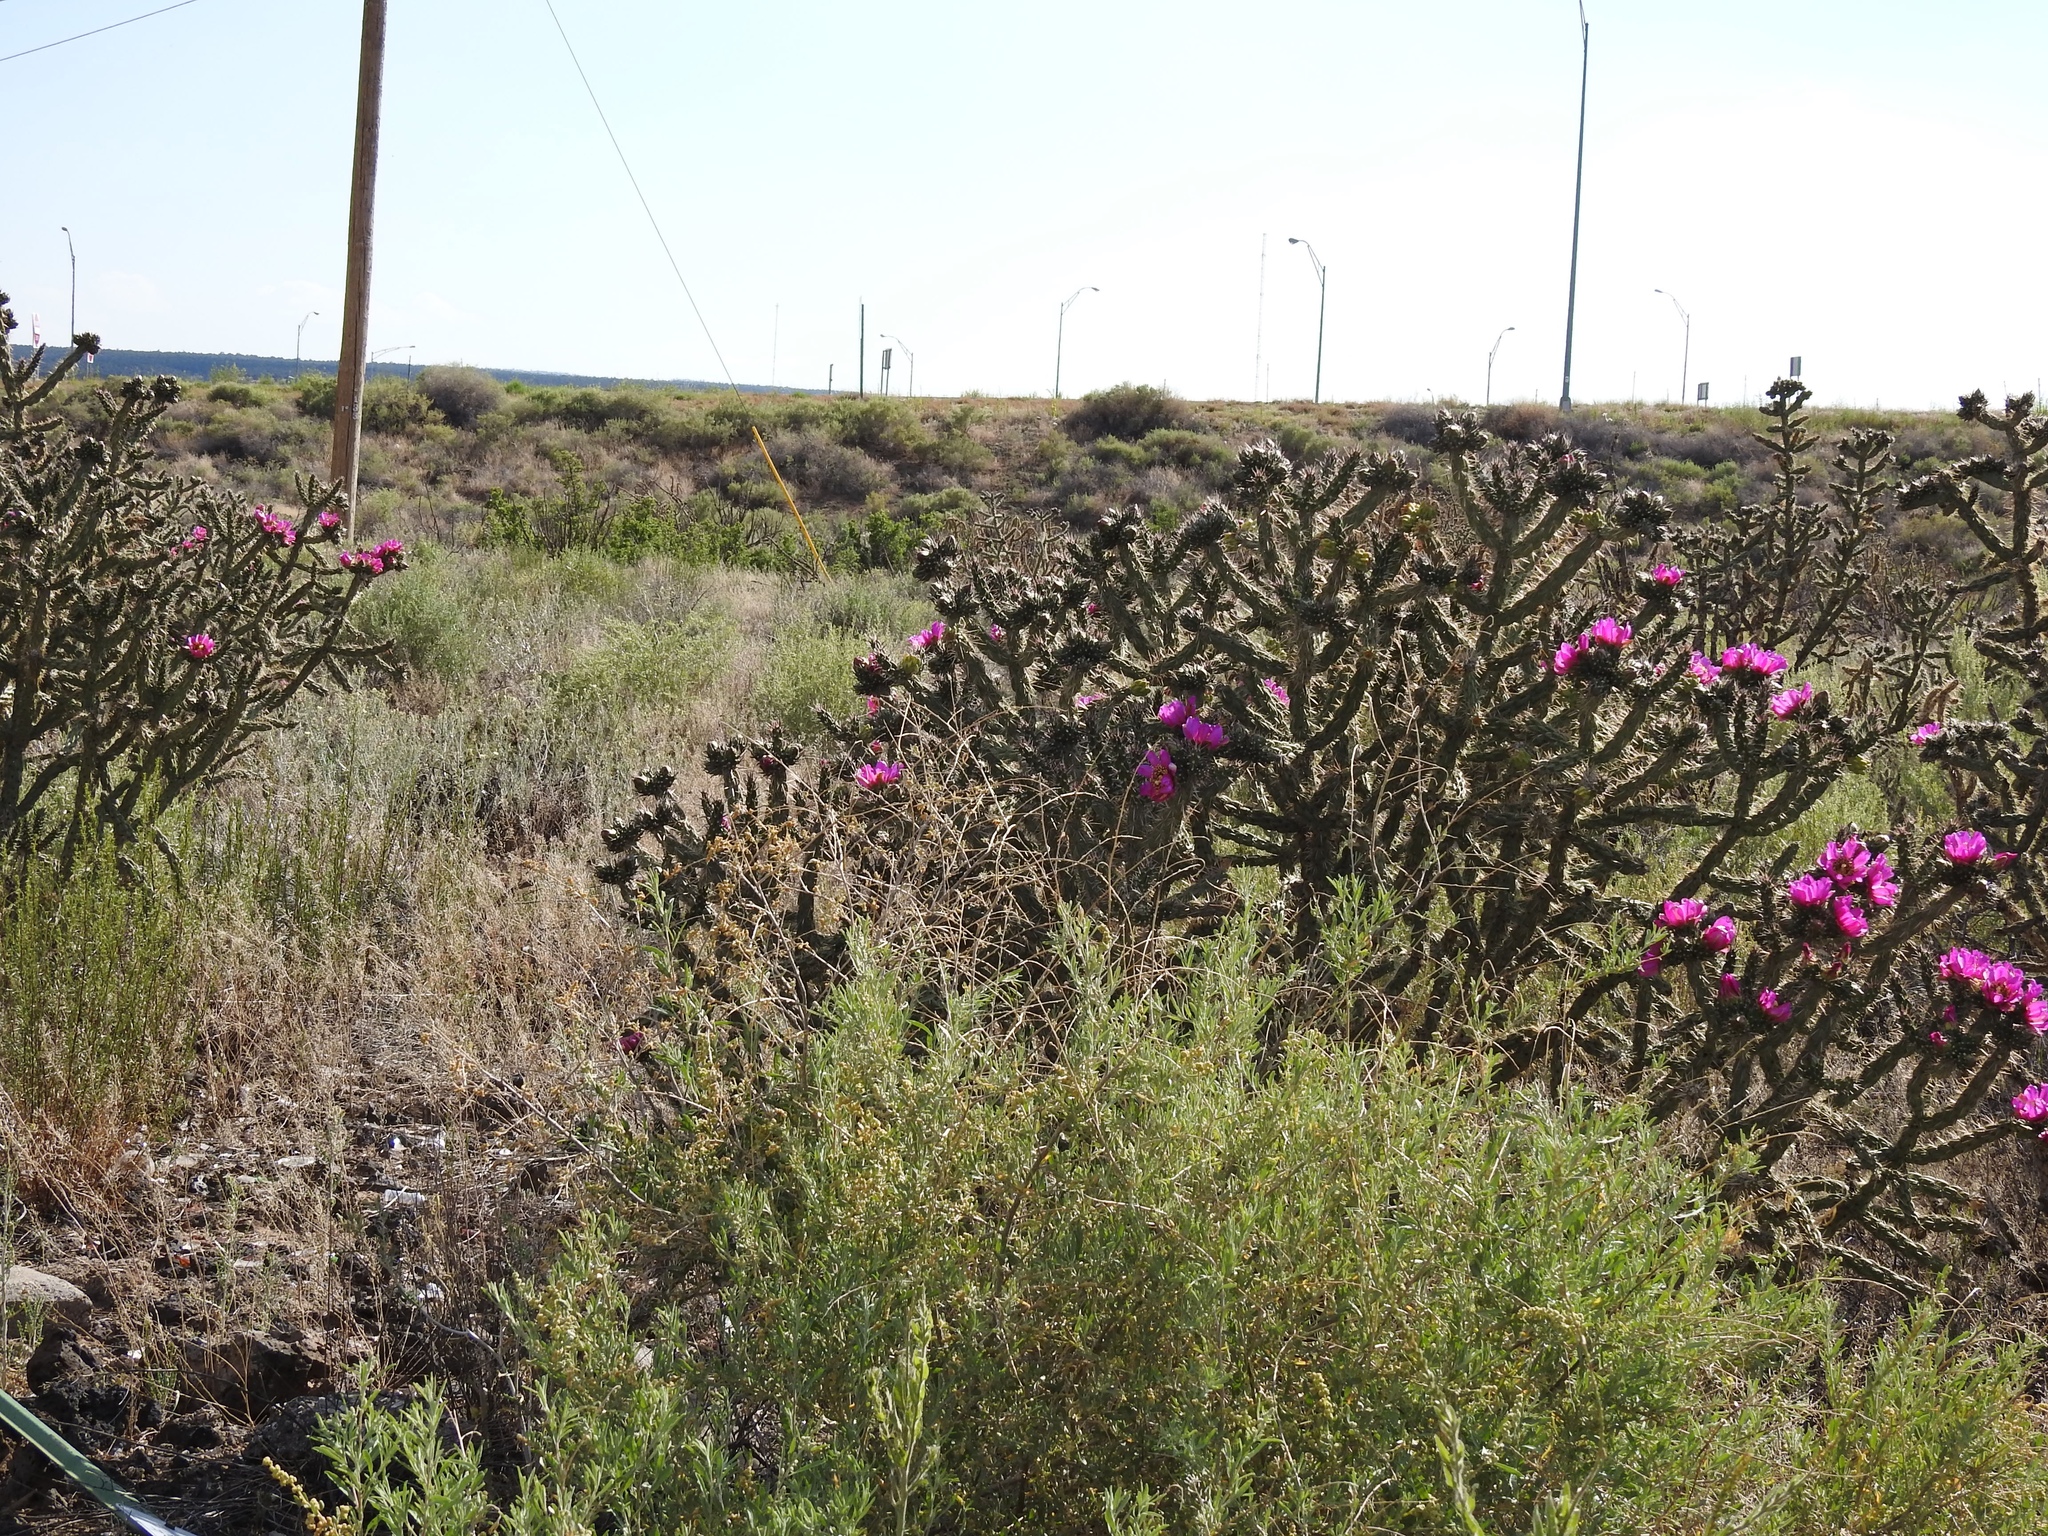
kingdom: Plantae
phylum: Tracheophyta
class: Magnoliopsida
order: Caryophyllales
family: Cactaceae
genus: Cylindropuntia
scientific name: Cylindropuntia imbricata
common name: Candelabrum cactus
